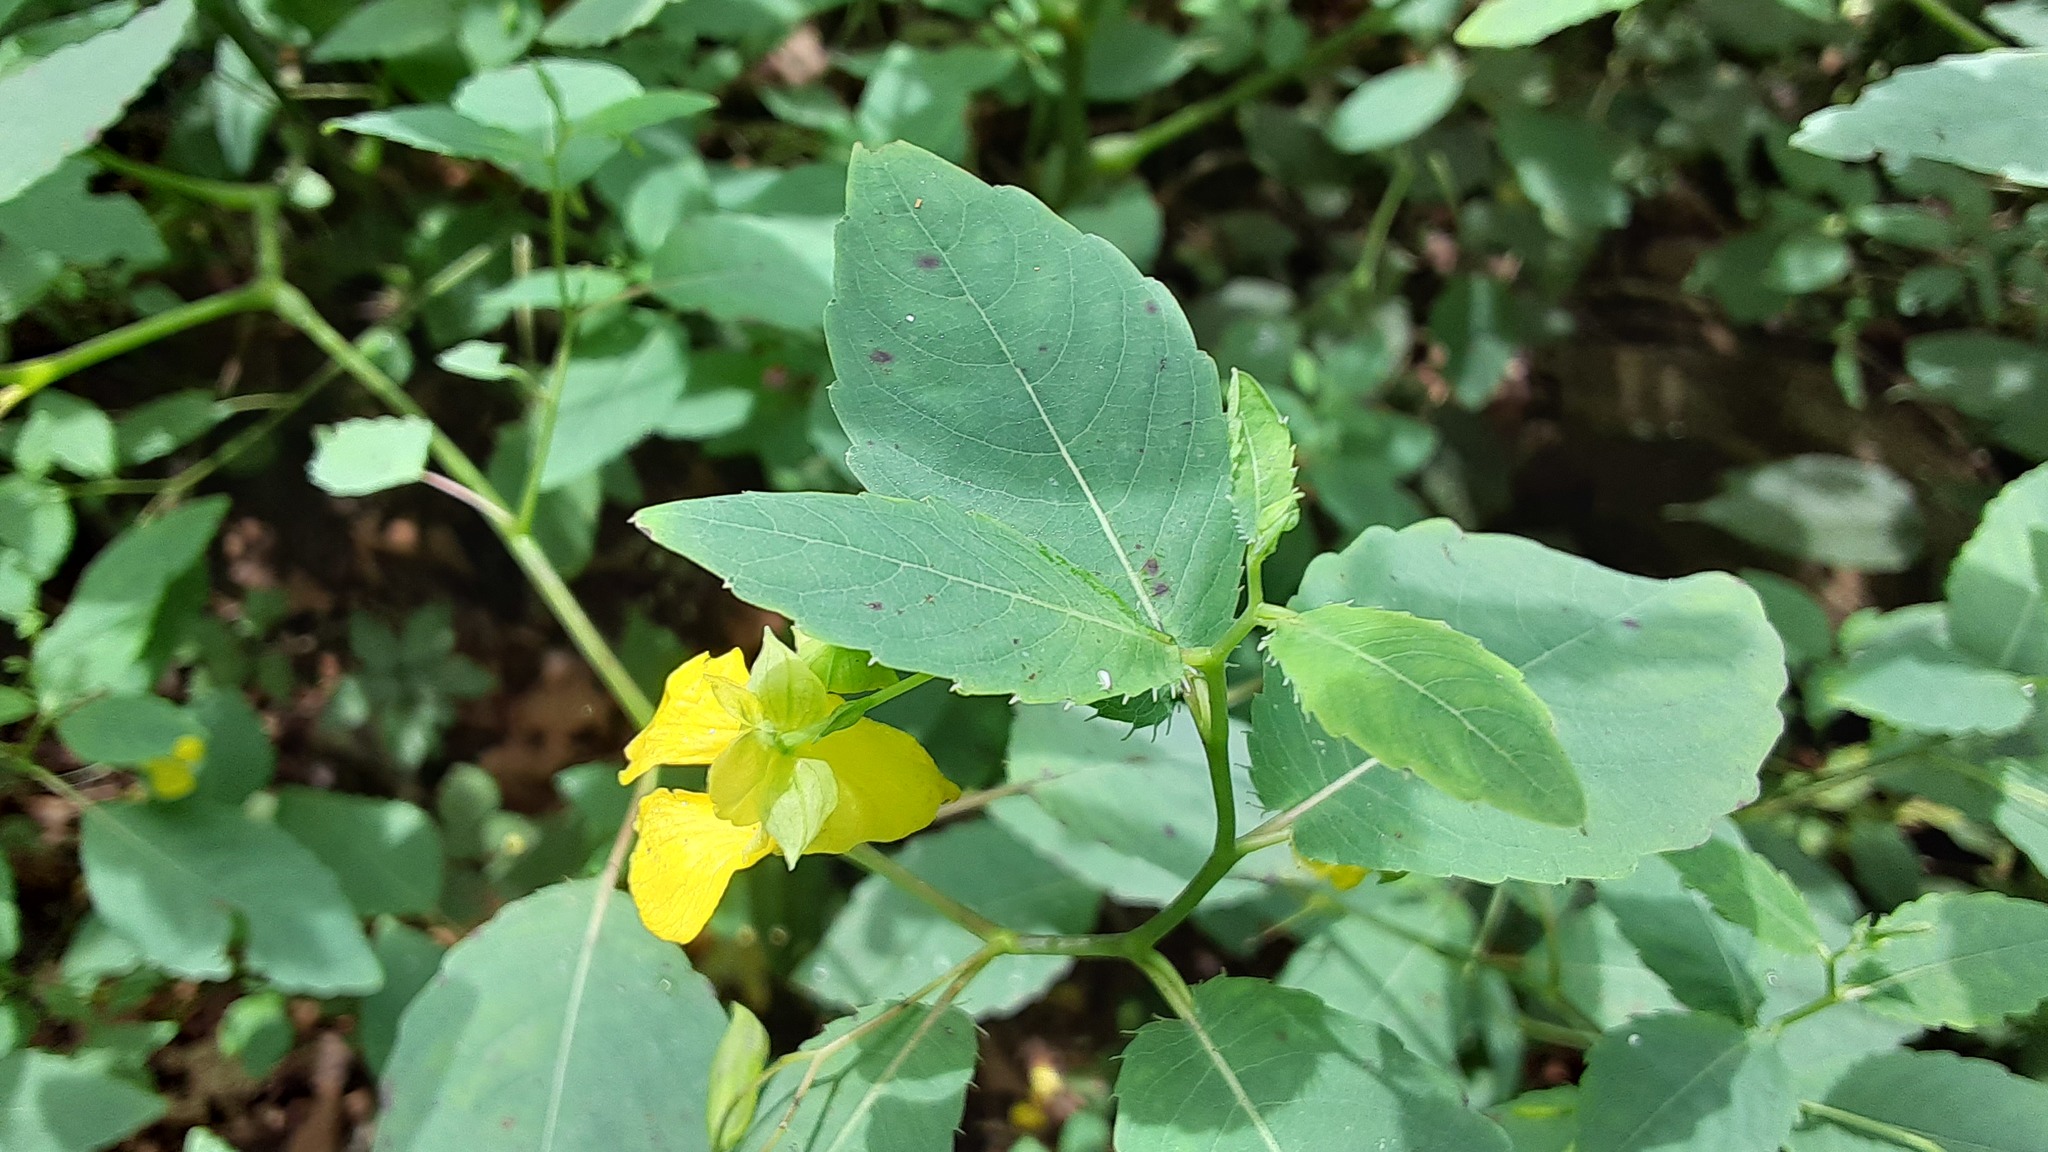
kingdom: Plantae
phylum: Tracheophyta
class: Magnoliopsida
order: Ericales
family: Balsaminaceae
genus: Impatiens
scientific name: Impatiens pallida
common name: Pale snapweed
